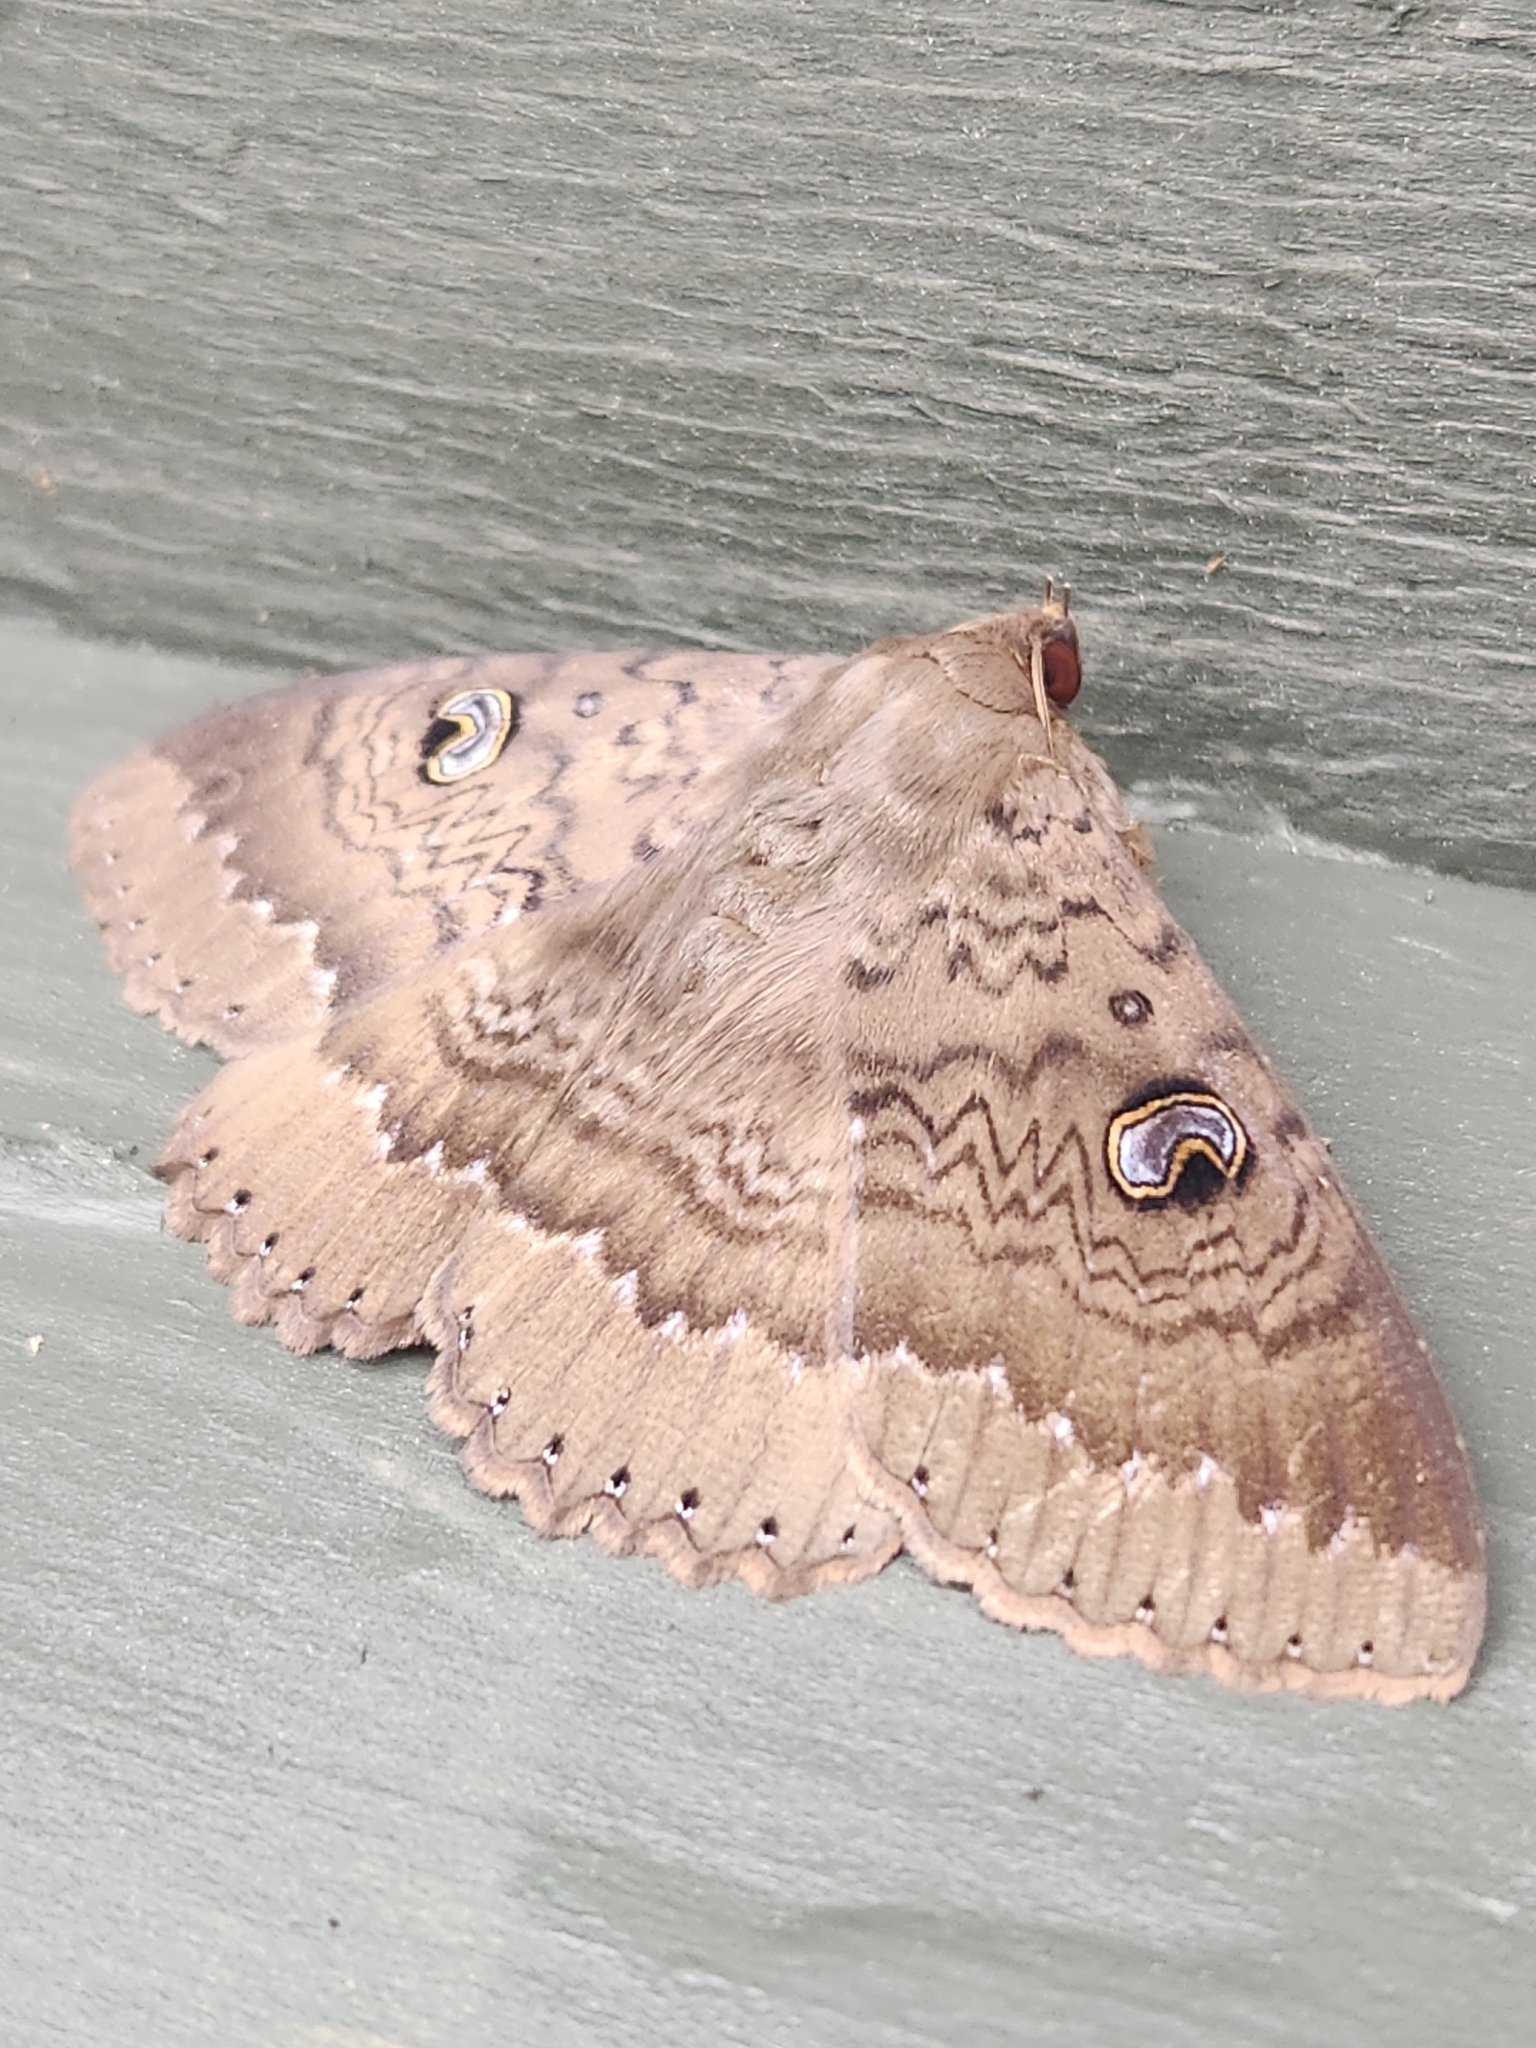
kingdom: Animalia
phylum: Arthropoda
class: Insecta
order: Lepidoptera
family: Erebidae
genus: Dasypodia
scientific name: Dasypodia cymatodes
